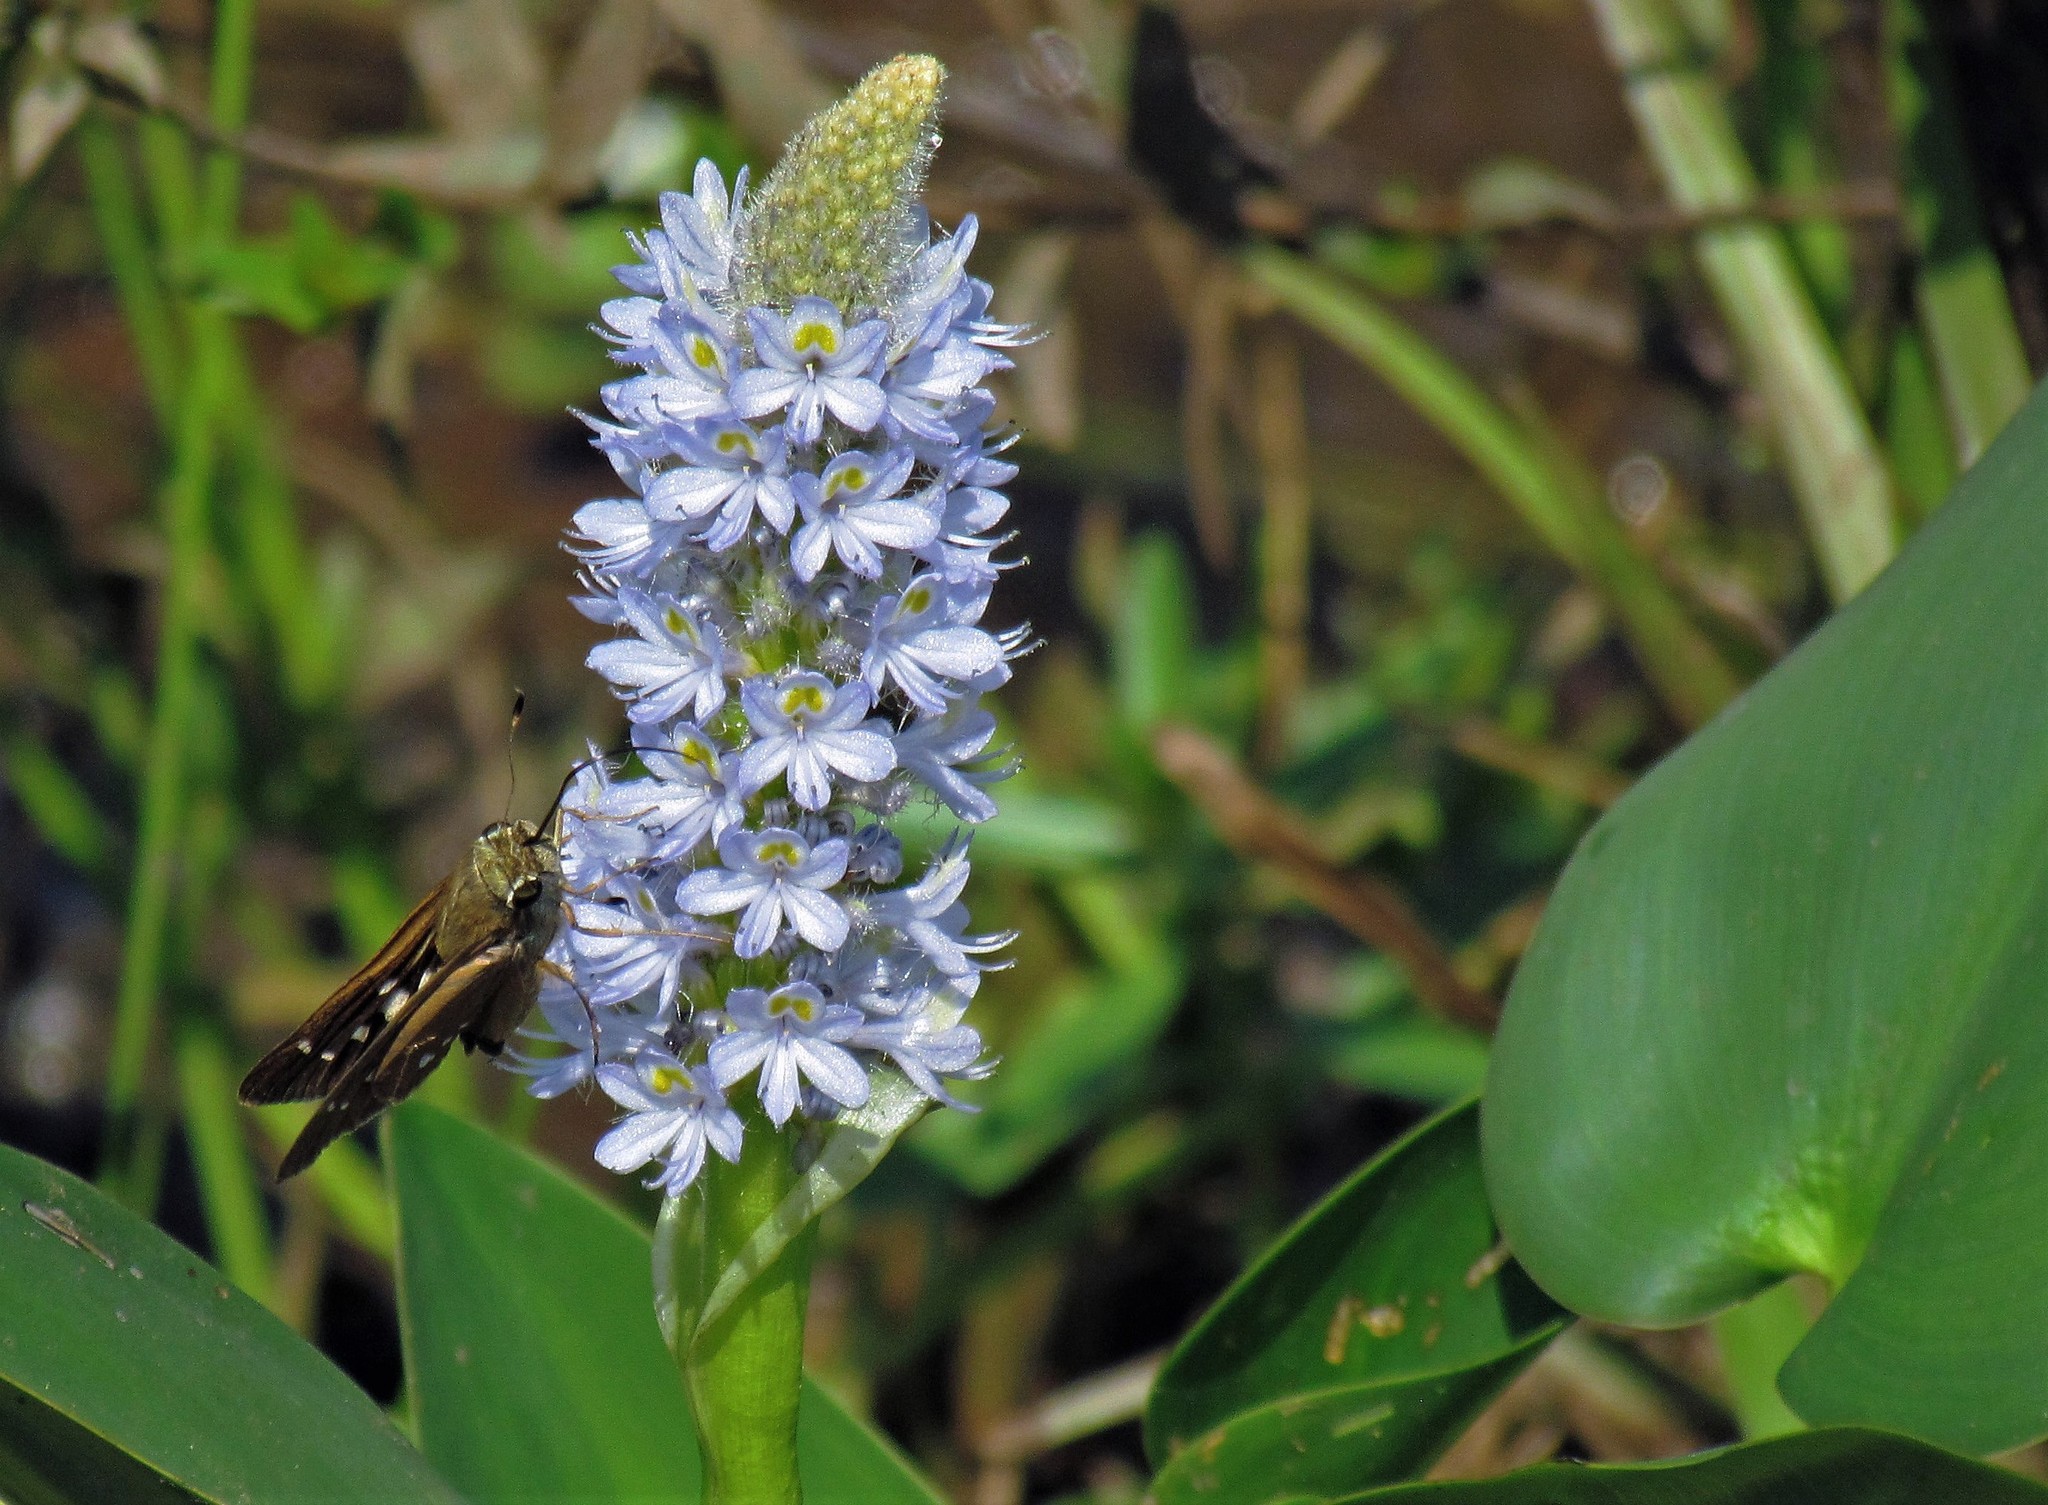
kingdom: Plantae
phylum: Tracheophyta
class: Liliopsida
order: Commelinales
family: Pontederiaceae
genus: Pontederia
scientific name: Pontederia cordata
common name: Pickerelweed
